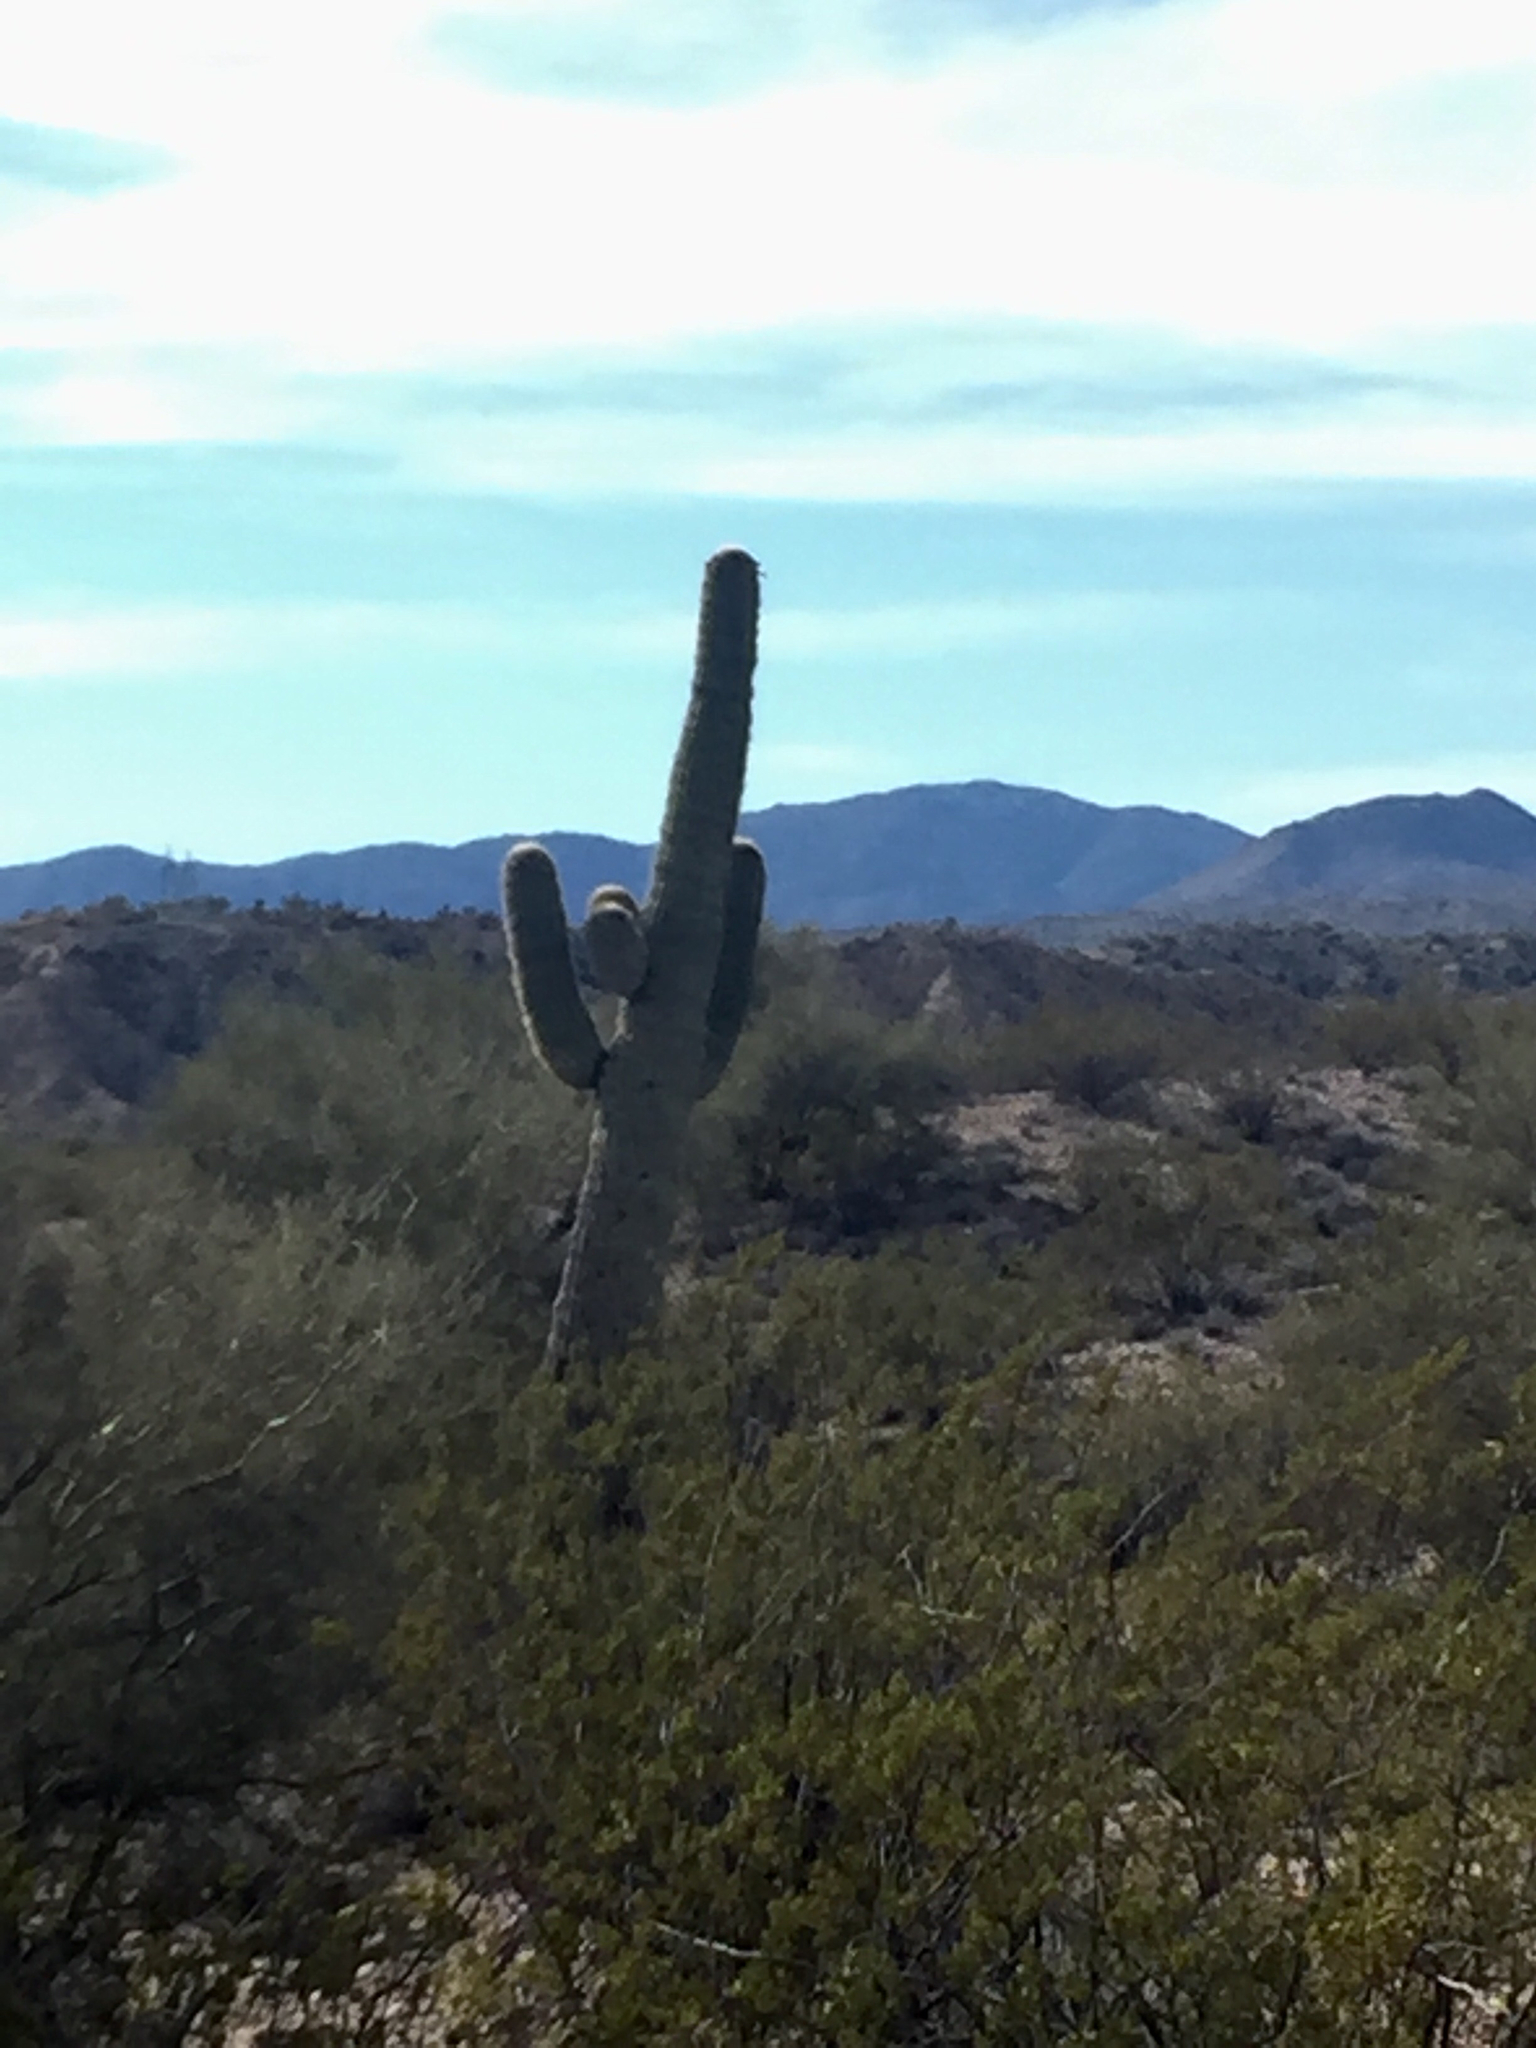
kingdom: Plantae
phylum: Tracheophyta
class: Magnoliopsida
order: Caryophyllales
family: Cactaceae
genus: Carnegiea
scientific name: Carnegiea gigantea
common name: Saguaro
